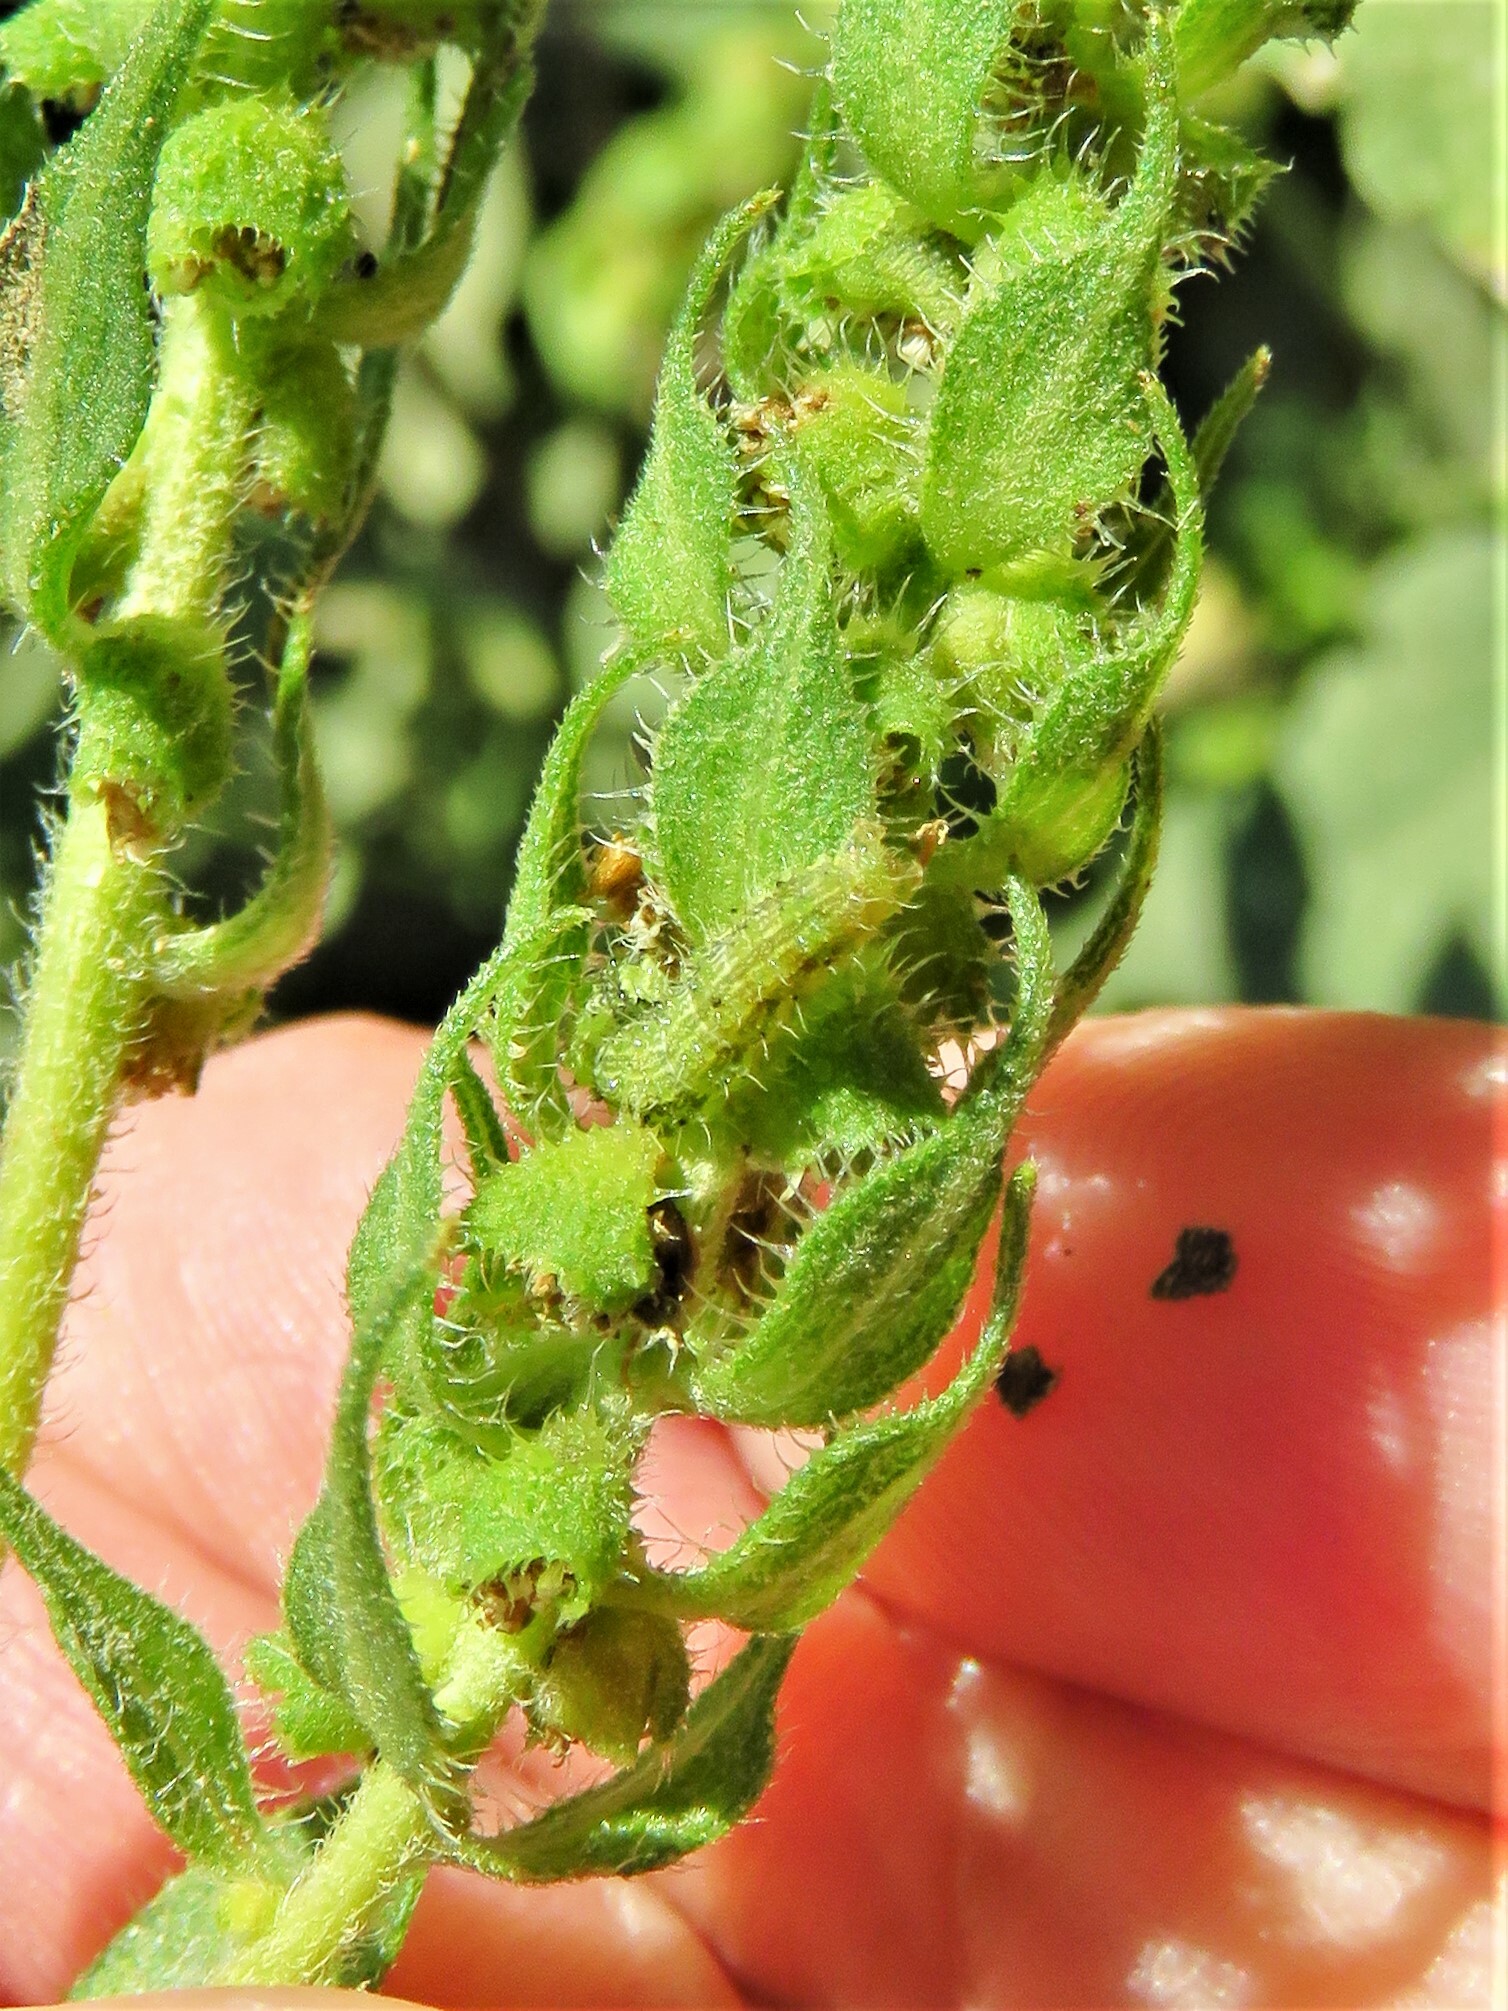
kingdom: Animalia
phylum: Arthropoda
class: Insecta
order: Lepidoptera
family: Noctuidae
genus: Schinia
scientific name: Schinia gracilenta
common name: Slender flower moth
